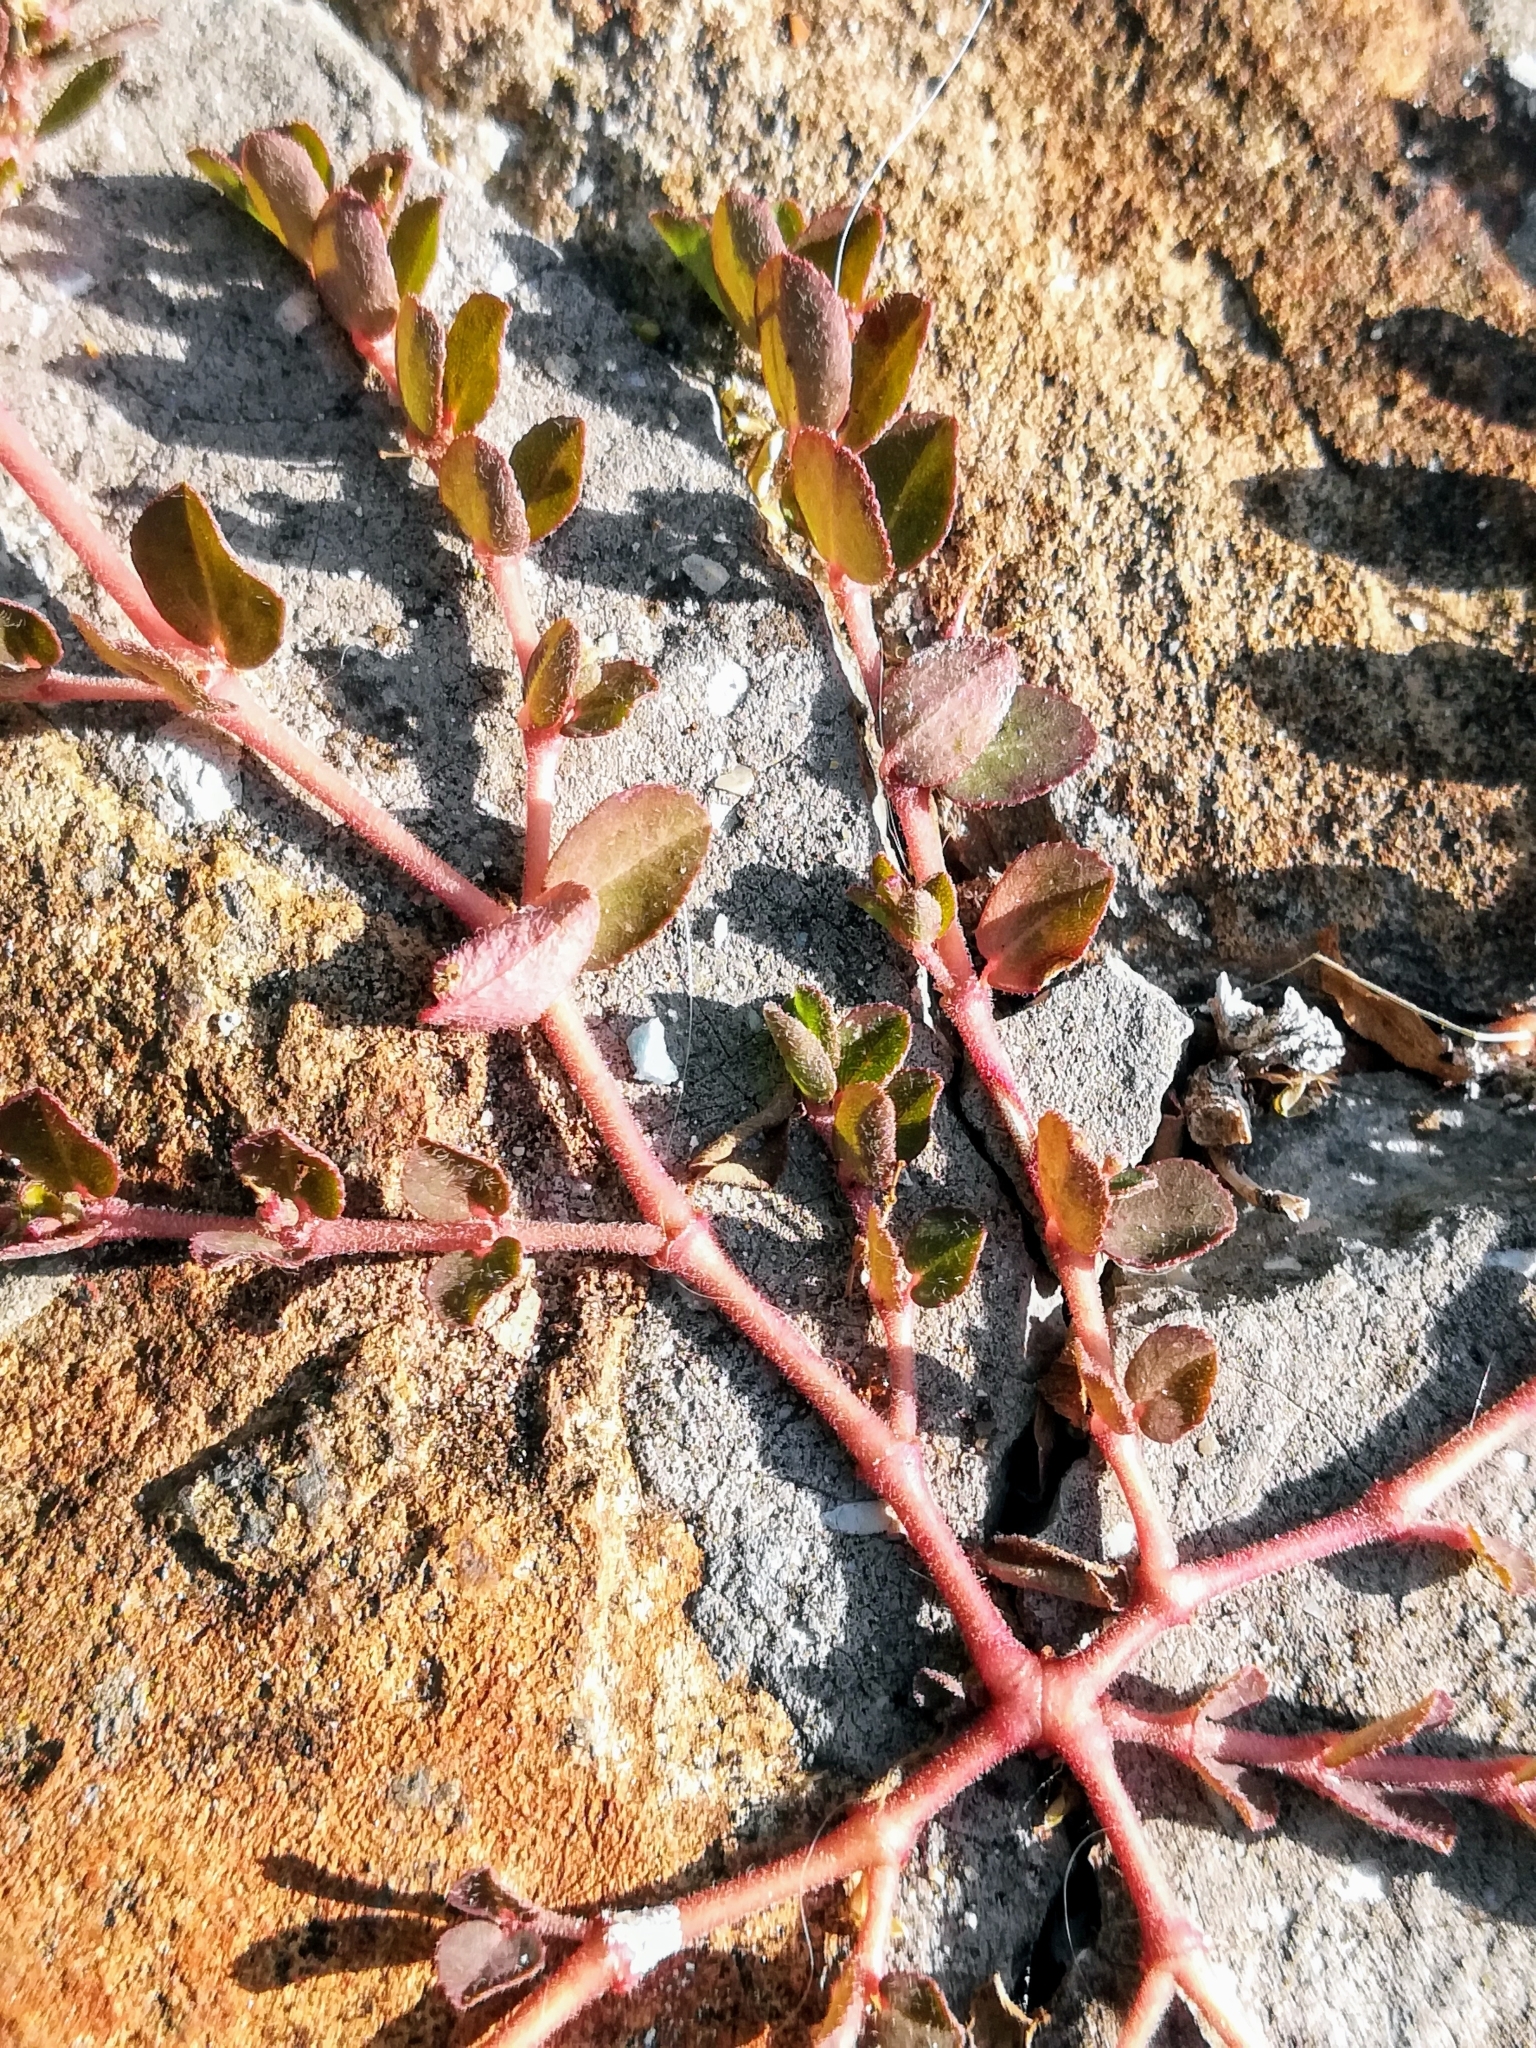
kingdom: Plantae
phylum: Tracheophyta
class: Magnoliopsida
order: Malpighiales
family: Euphorbiaceae
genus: Euphorbia
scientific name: Euphorbia prostrata
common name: Prostrate sandmat
